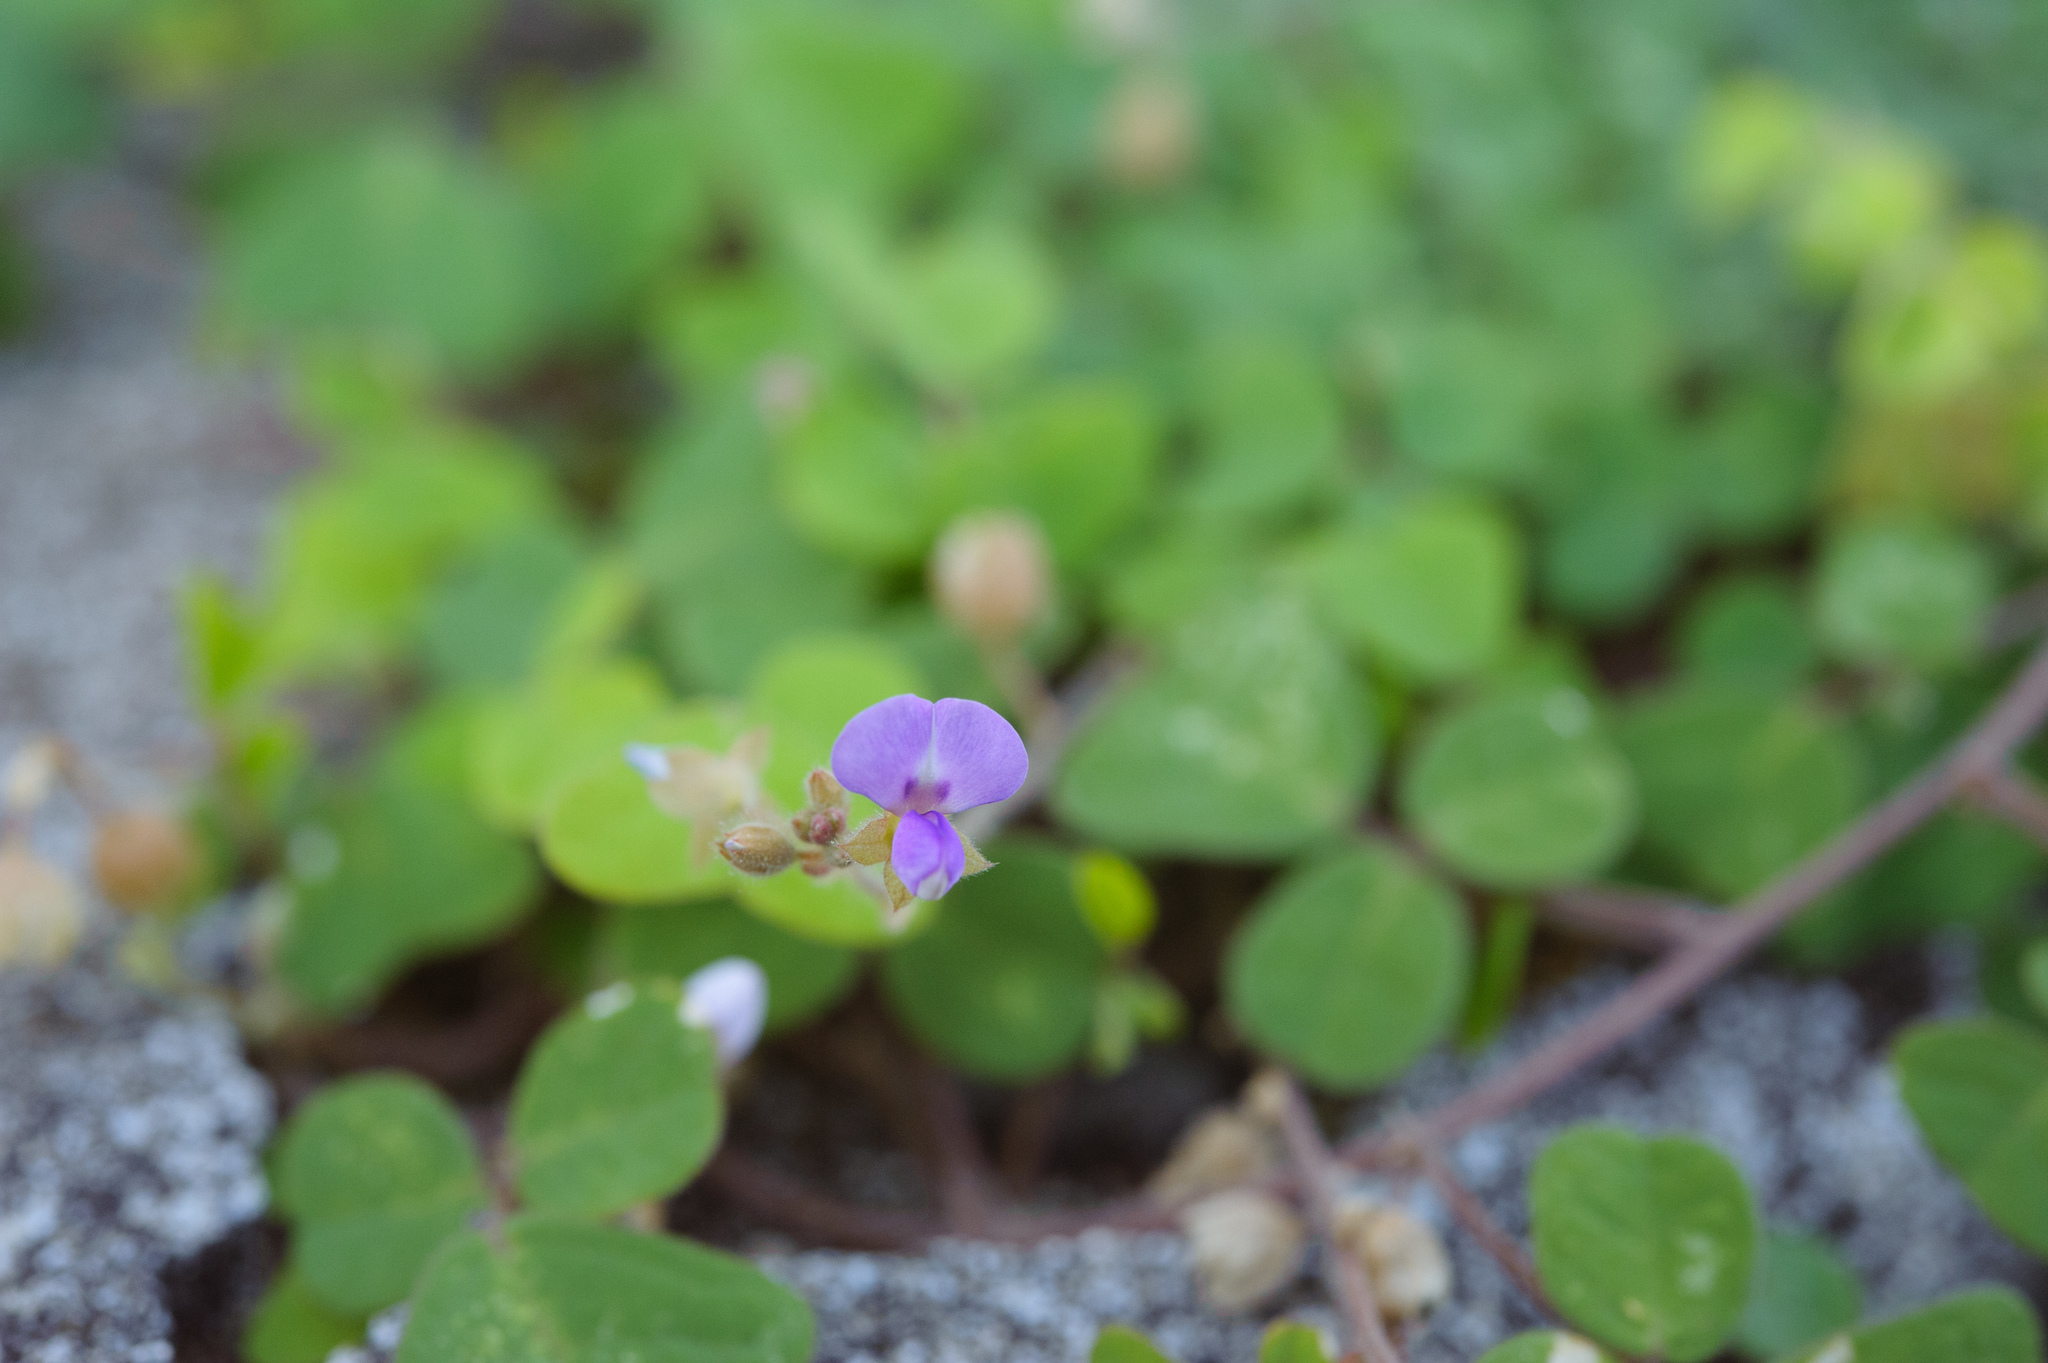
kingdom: Plantae
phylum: Tracheophyta
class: Magnoliopsida
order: Fabales
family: Fabaceae
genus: Christia
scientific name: Christia obcordata
